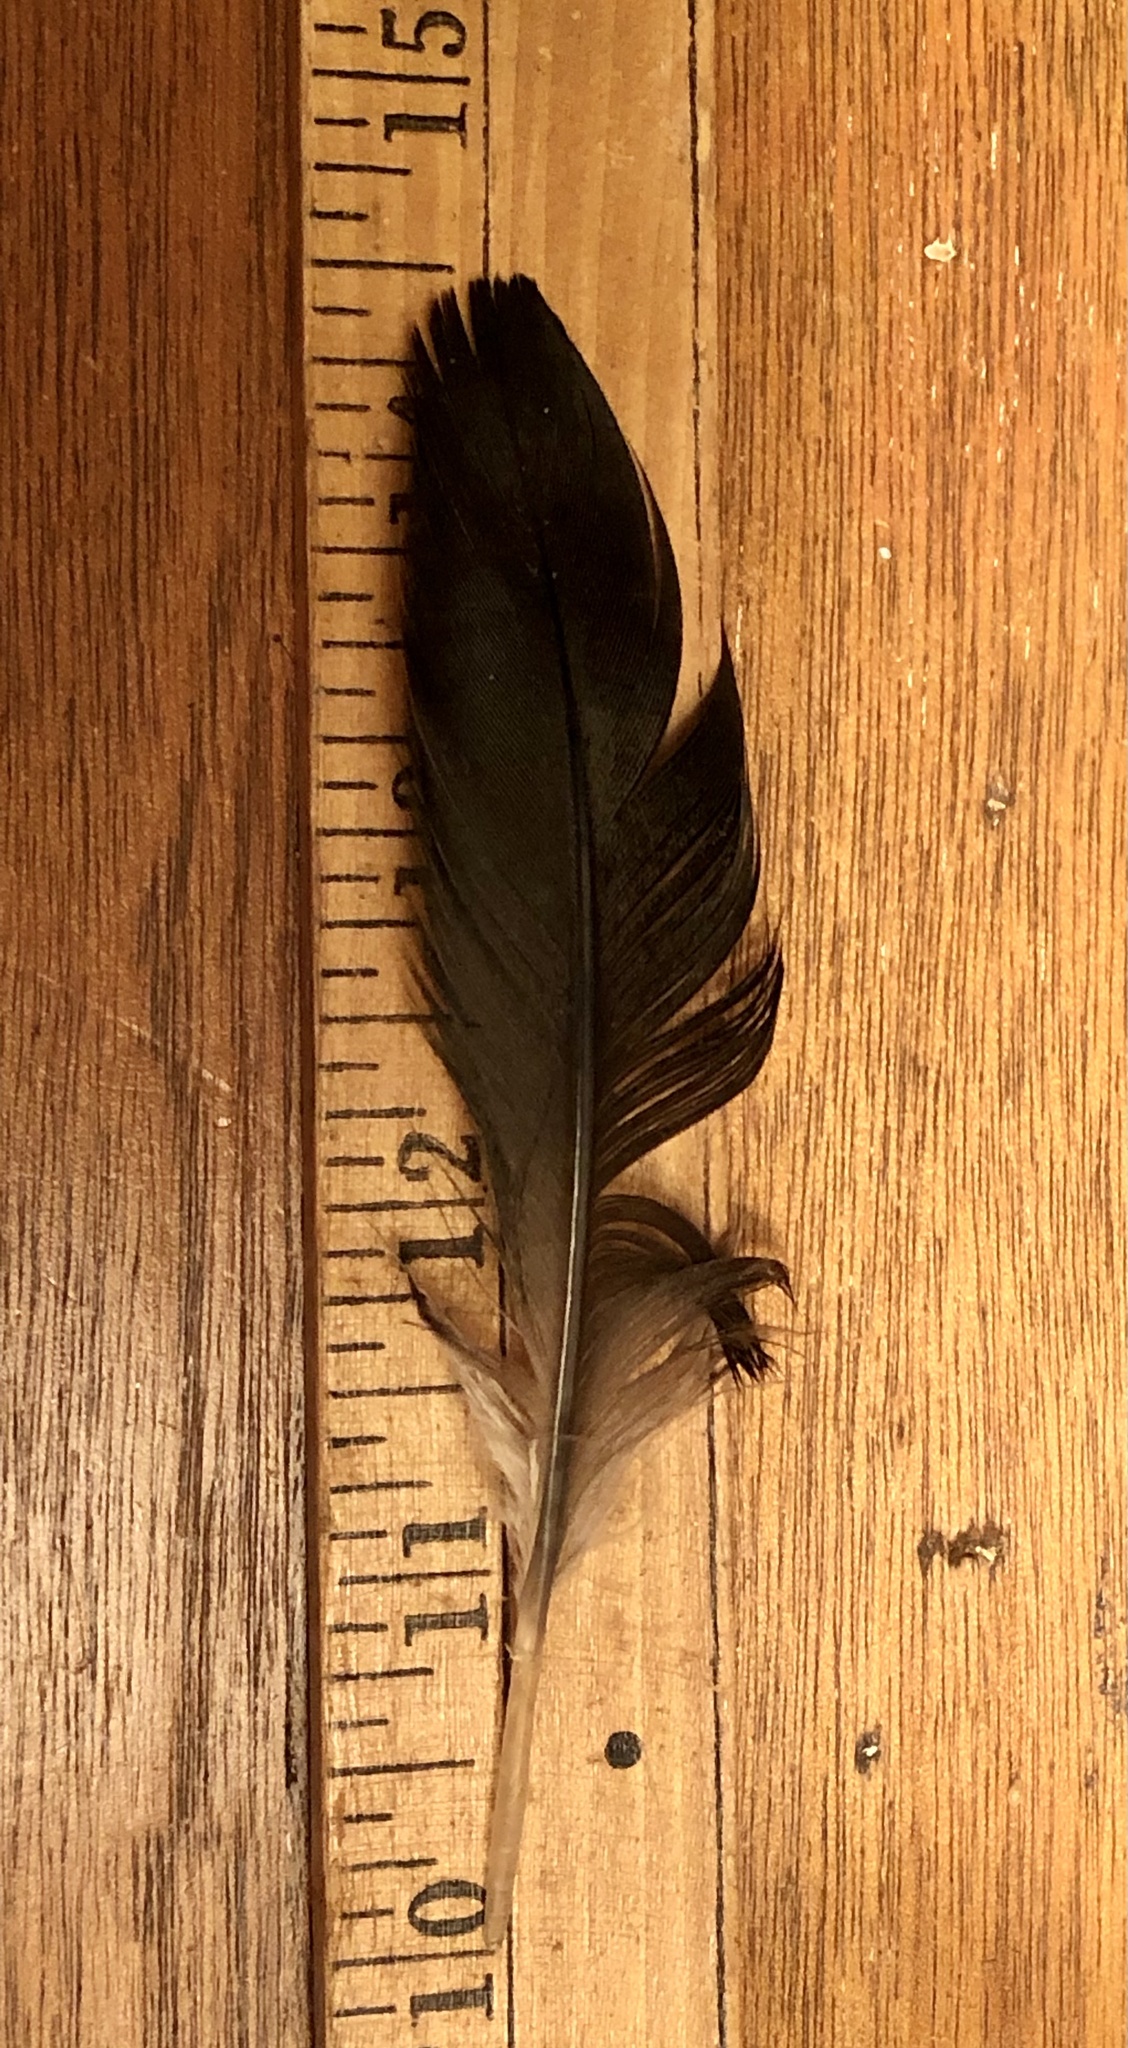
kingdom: Animalia
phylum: Chordata
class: Aves
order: Suliformes
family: Phalacrocoracidae
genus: Phalacrocorax
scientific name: Phalacrocorax auritus
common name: Double-crested cormorant
